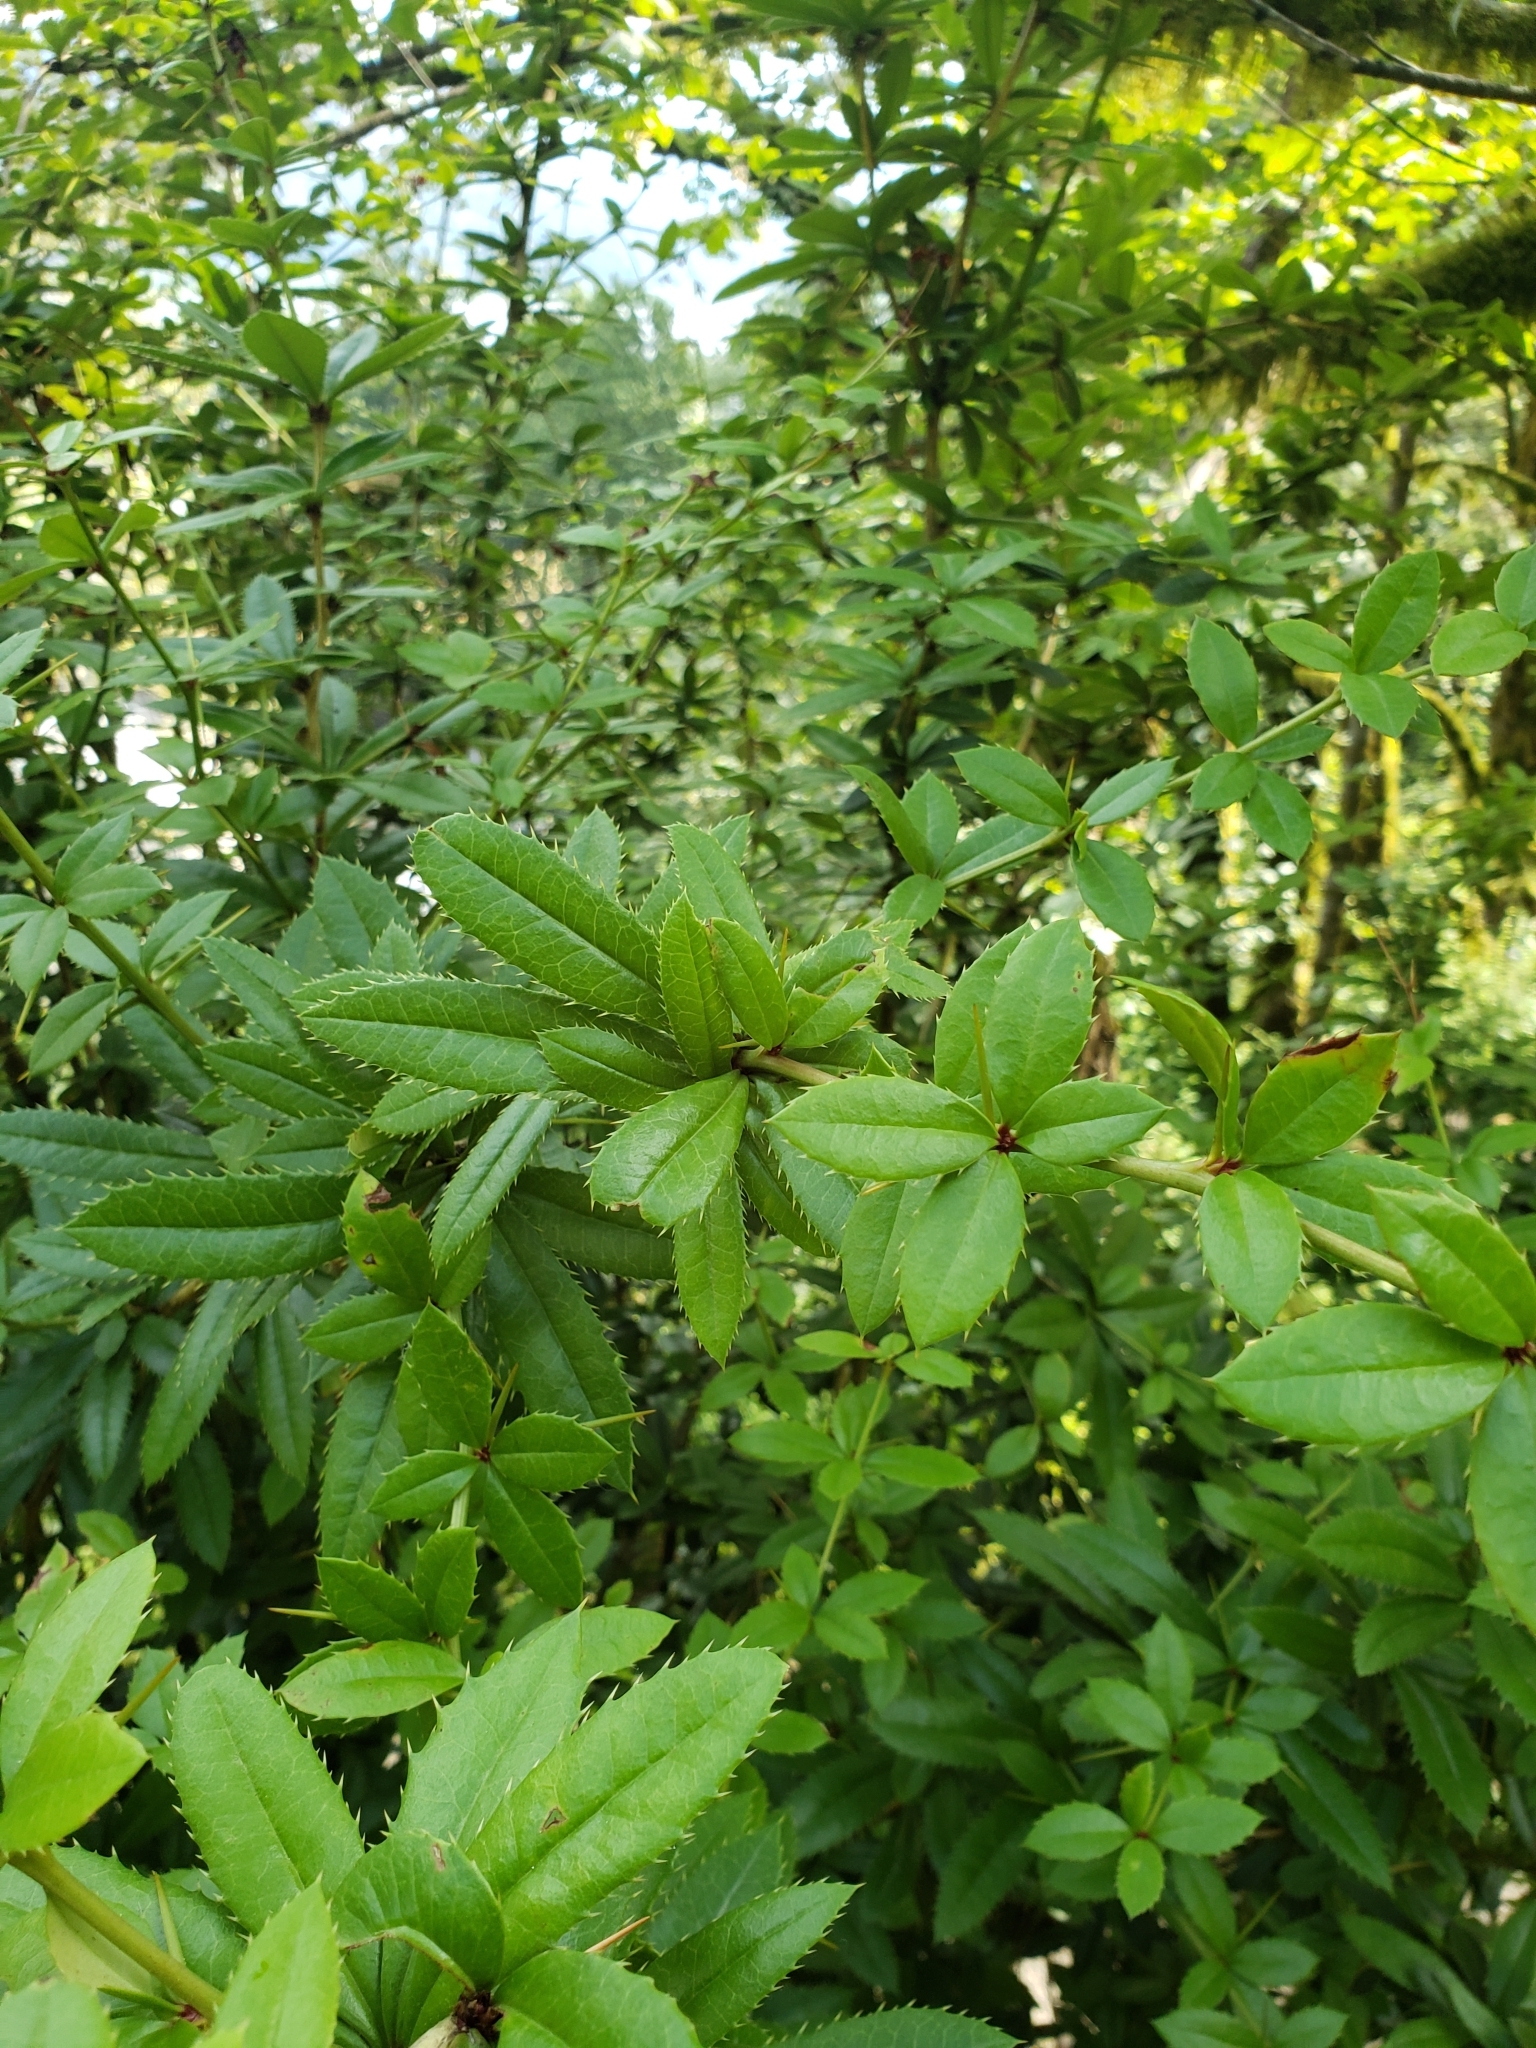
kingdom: Plantae
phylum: Tracheophyta
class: Magnoliopsida
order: Ranunculales
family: Berberidaceae
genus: Berberis
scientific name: Berberis julianae
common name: Wintergreen barberry
